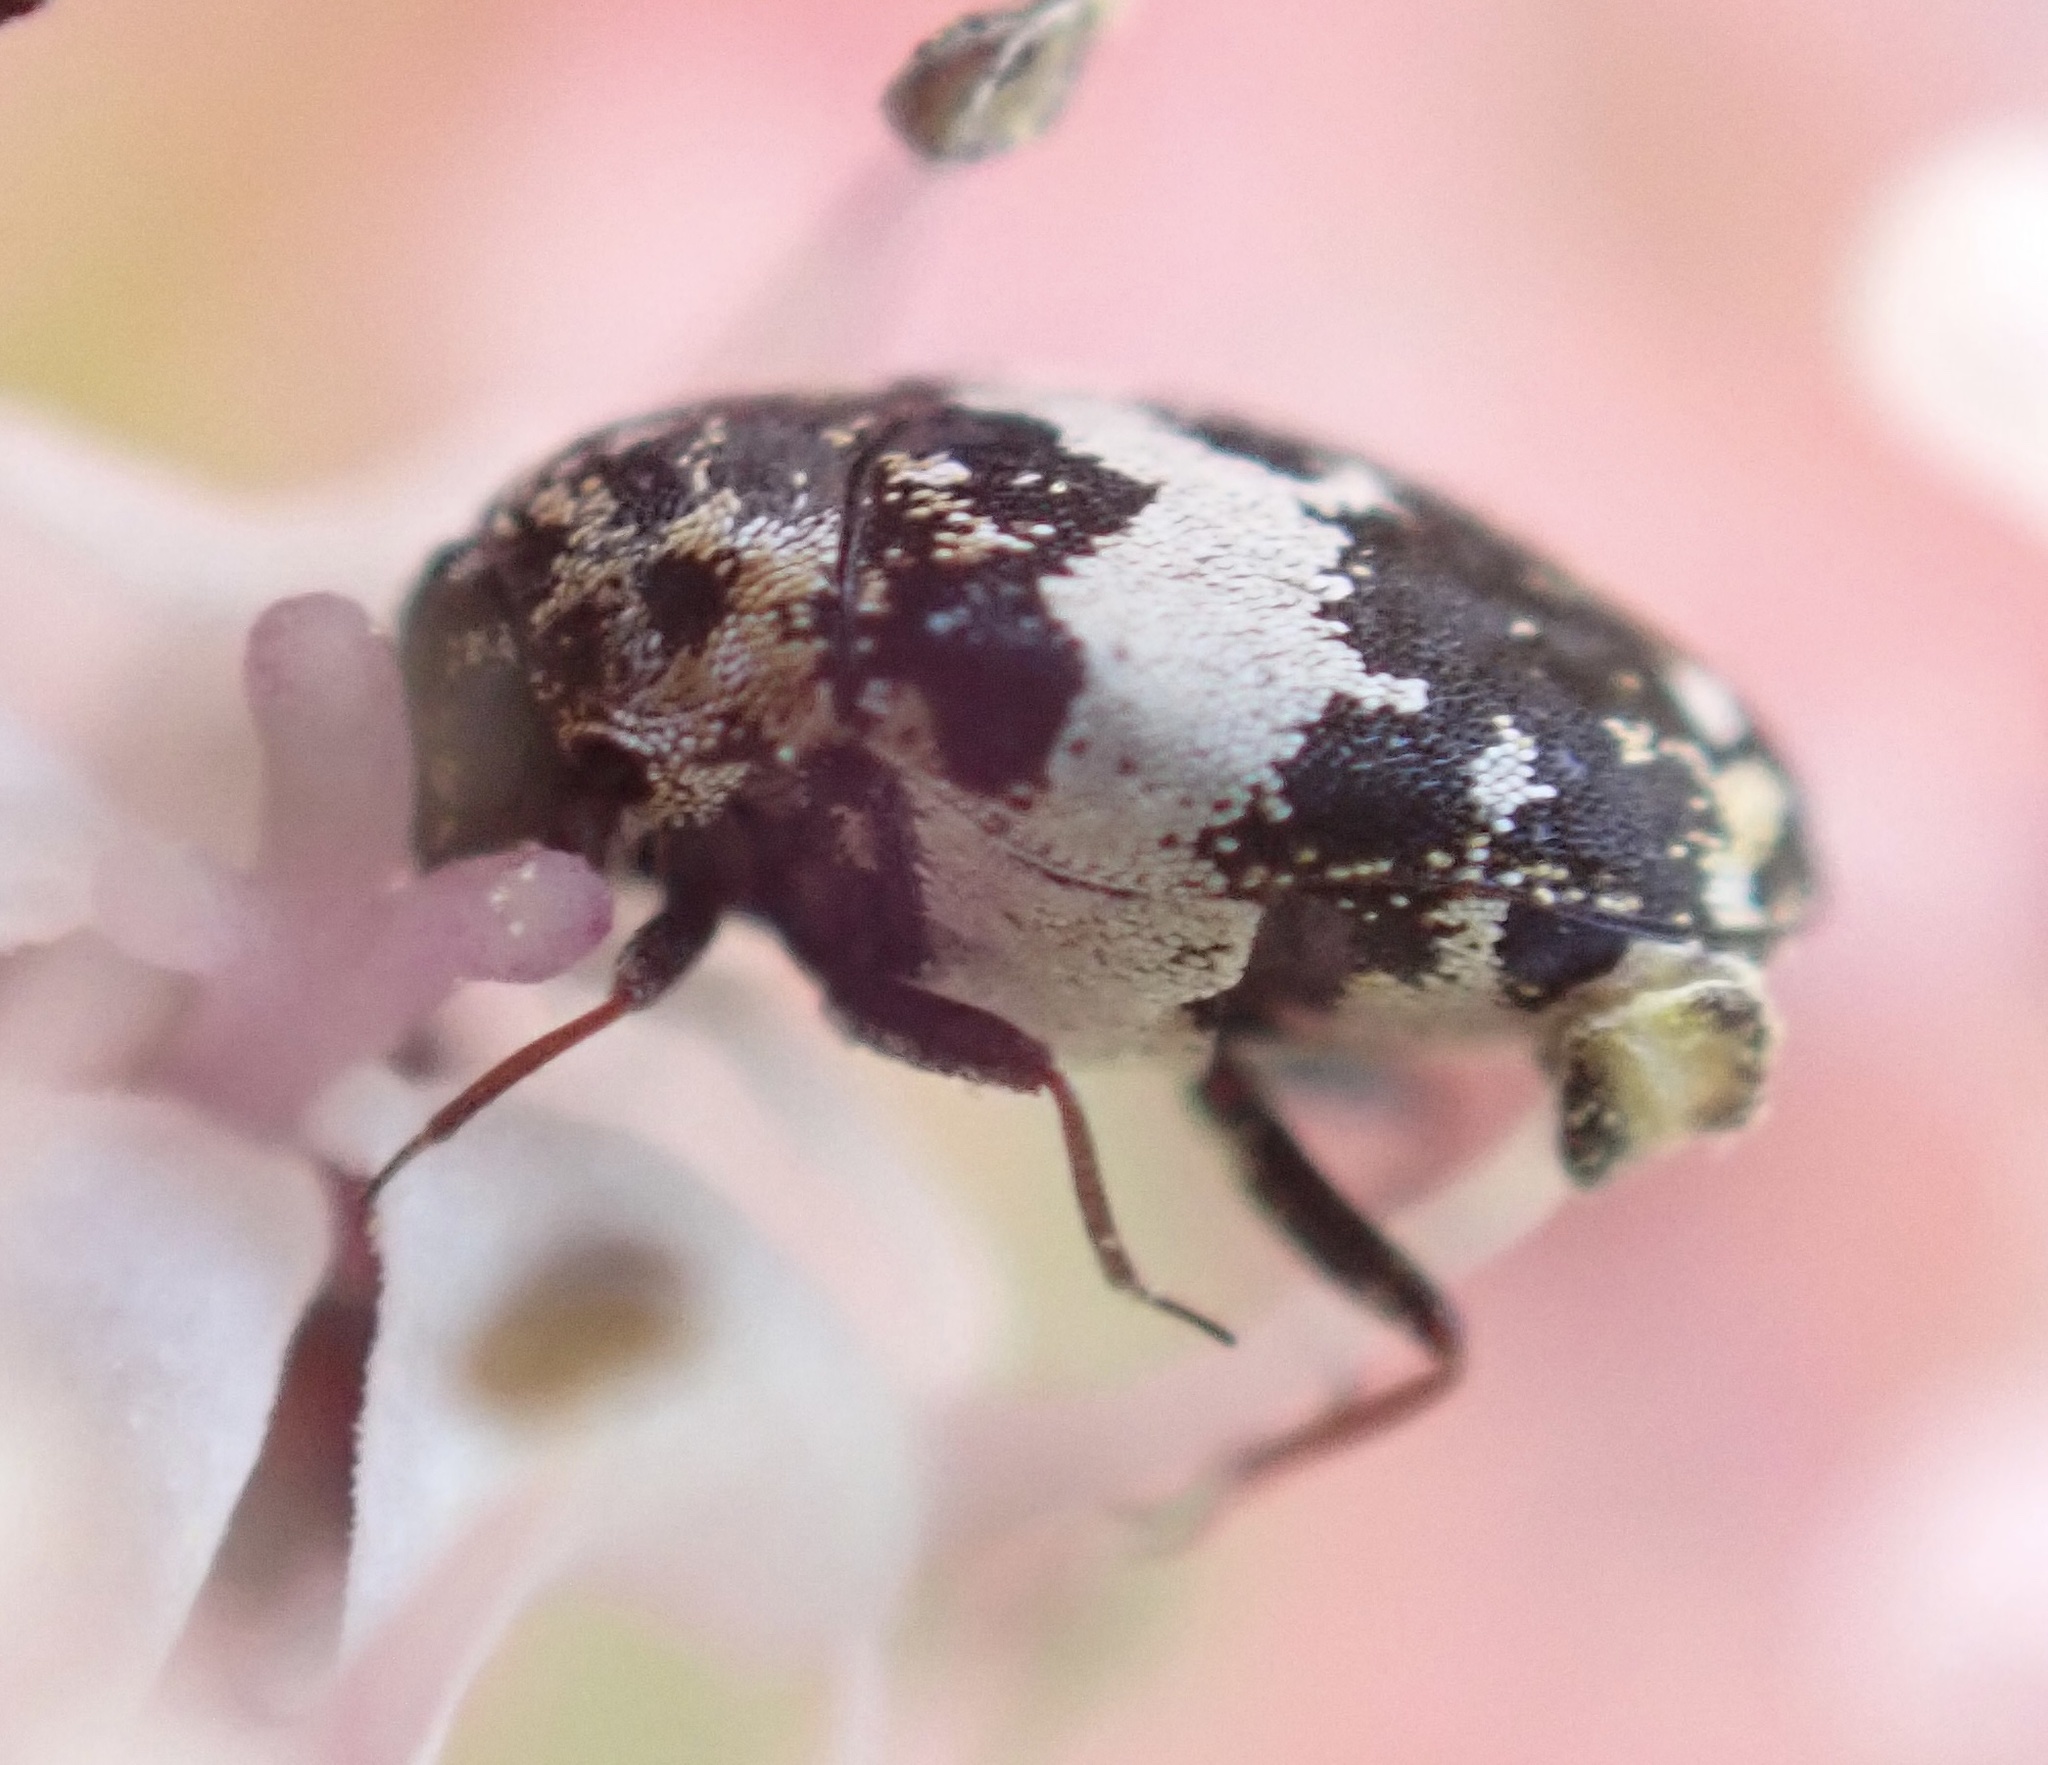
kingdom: Animalia
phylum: Arthropoda
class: Insecta
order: Coleoptera
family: Dermestidae
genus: Anthrenus
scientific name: Anthrenus pimpinellae
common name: Dermestid beetle
